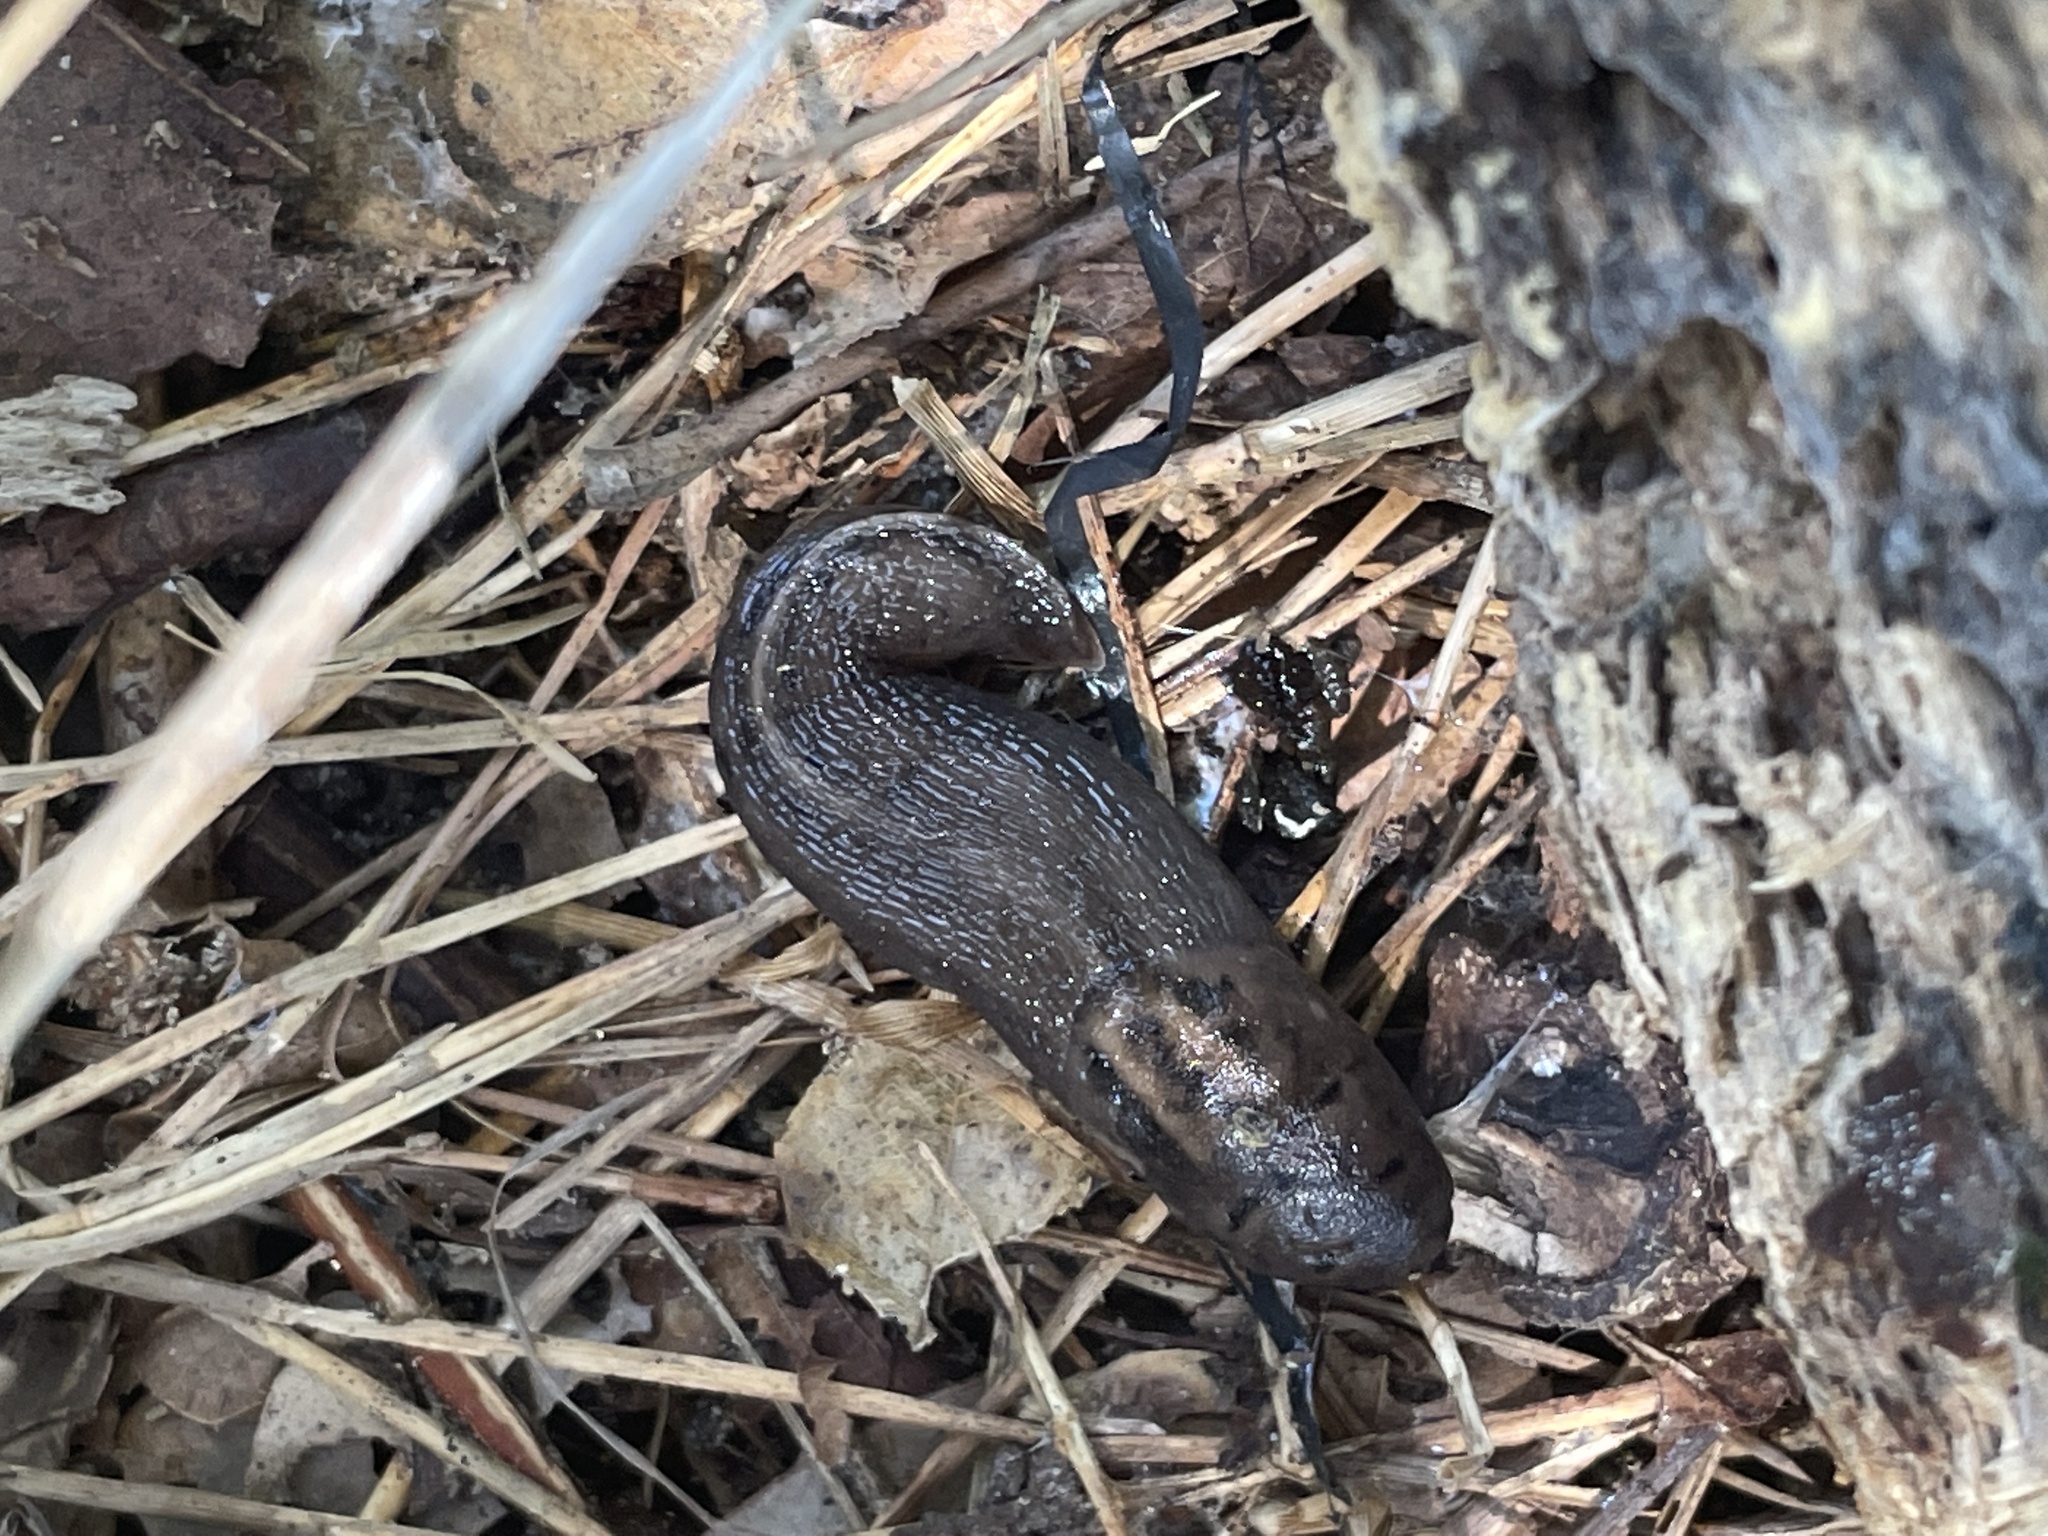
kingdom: Animalia
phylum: Mollusca
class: Gastropoda
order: Stylommatophora
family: Limacidae
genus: Limax
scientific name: Limax maximus
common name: Great grey slug
